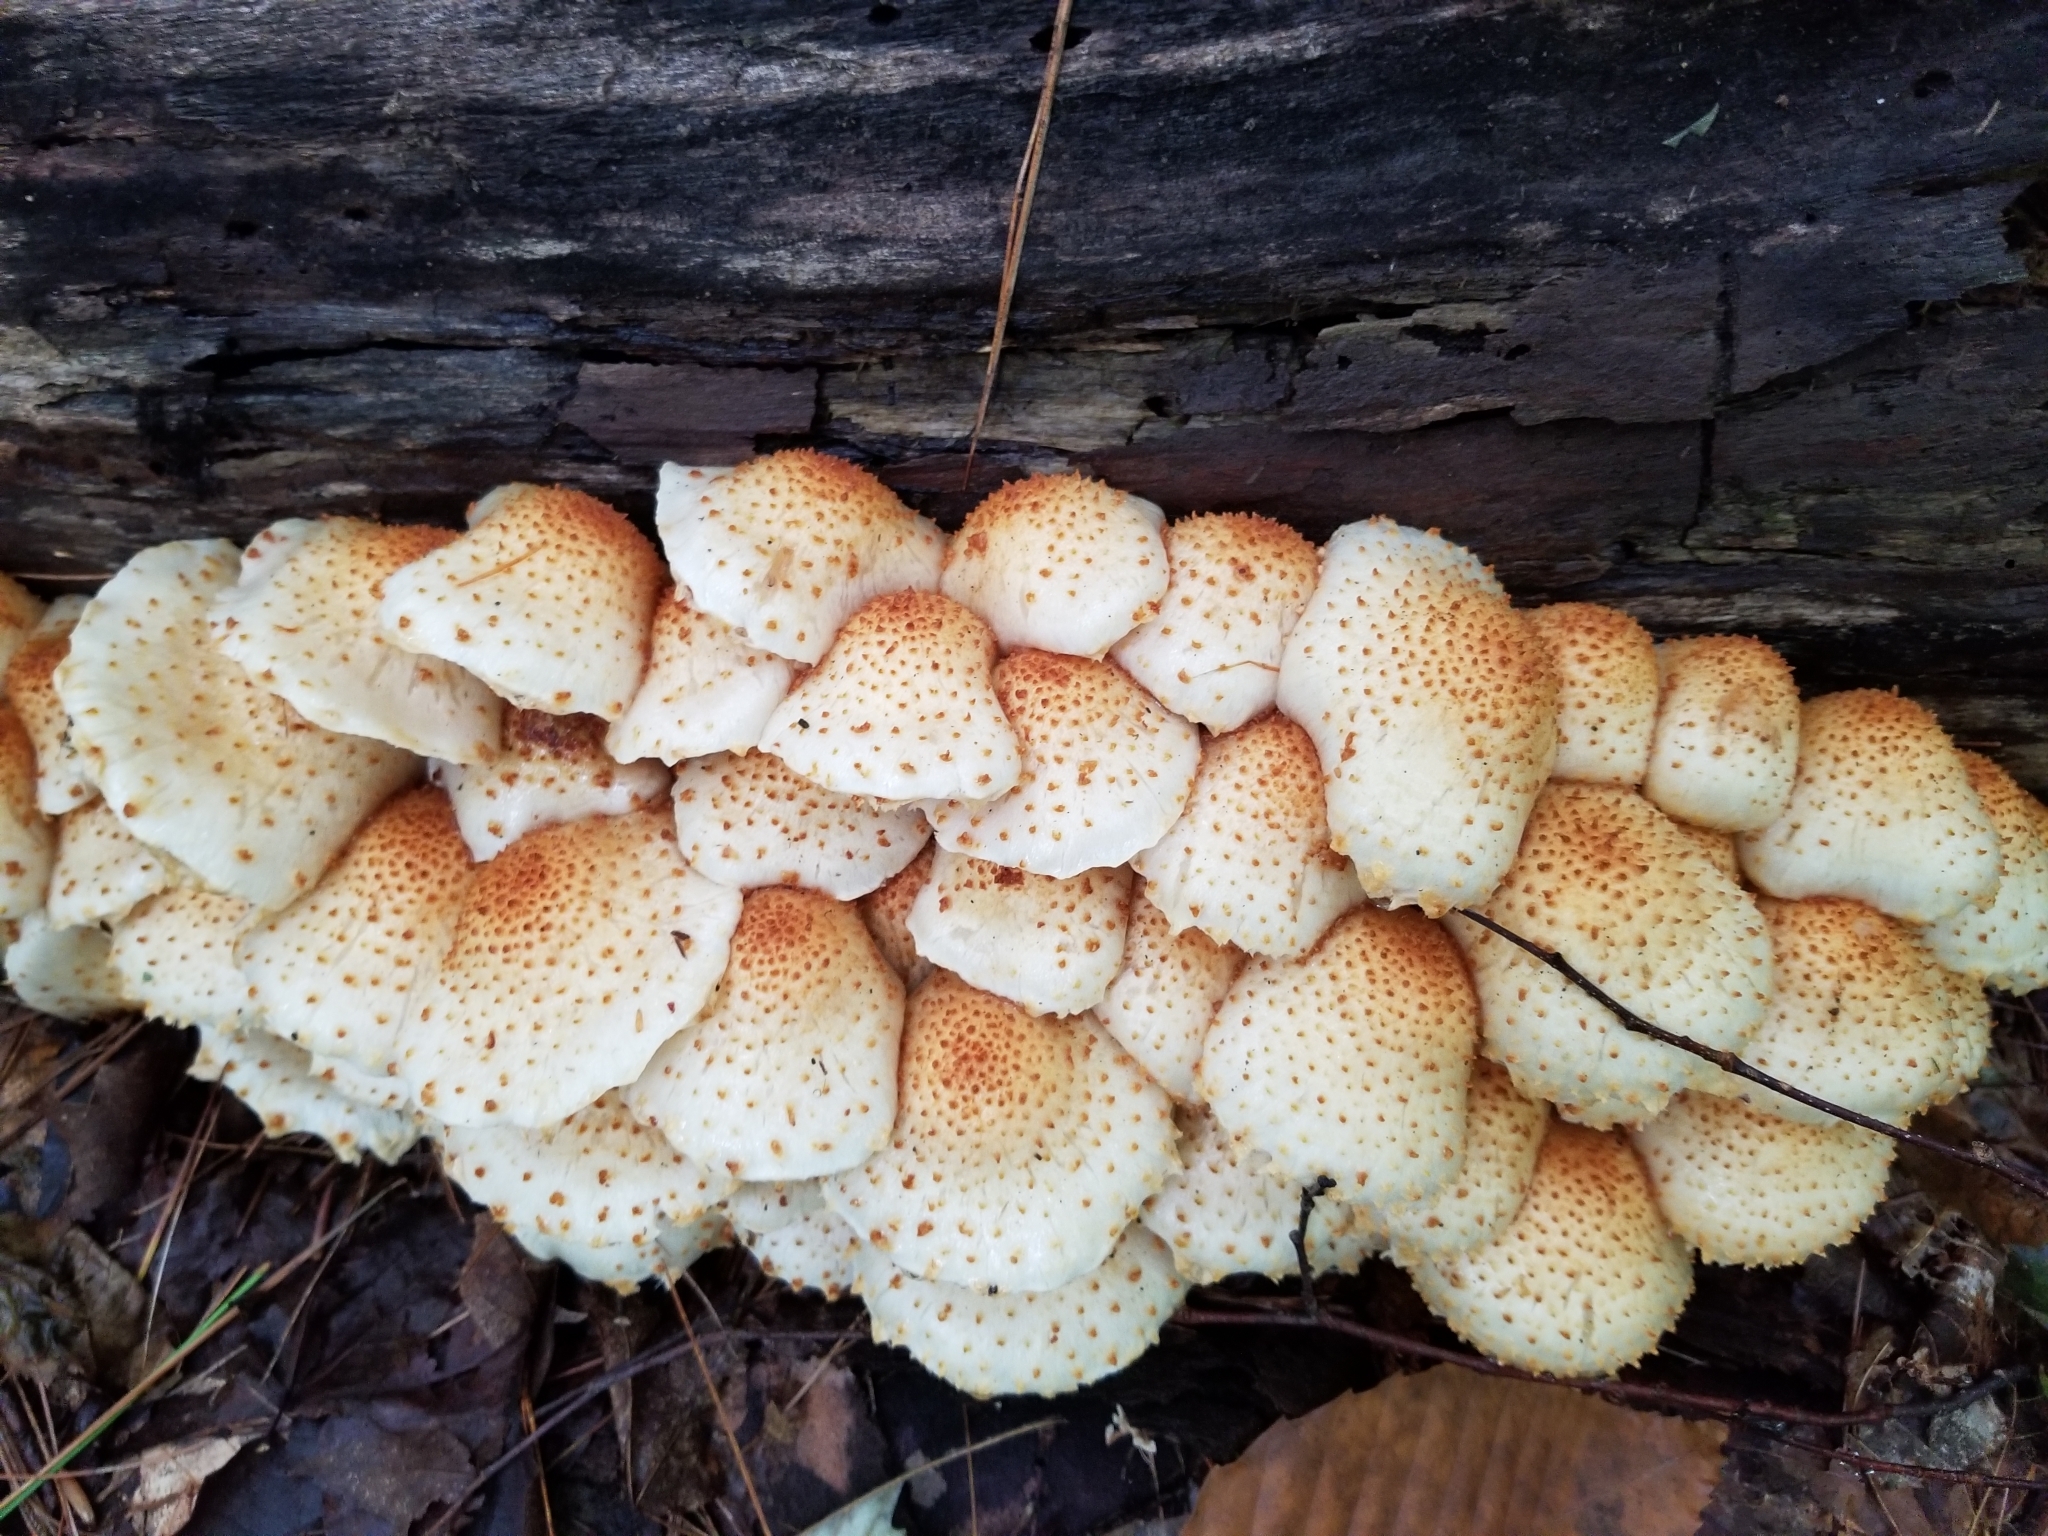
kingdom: Fungi
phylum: Basidiomycota
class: Agaricomycetes
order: Agaricales
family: Strophariaceae
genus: Pholiota
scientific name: Pholiota squarrosa
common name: Shaggy pholiota
